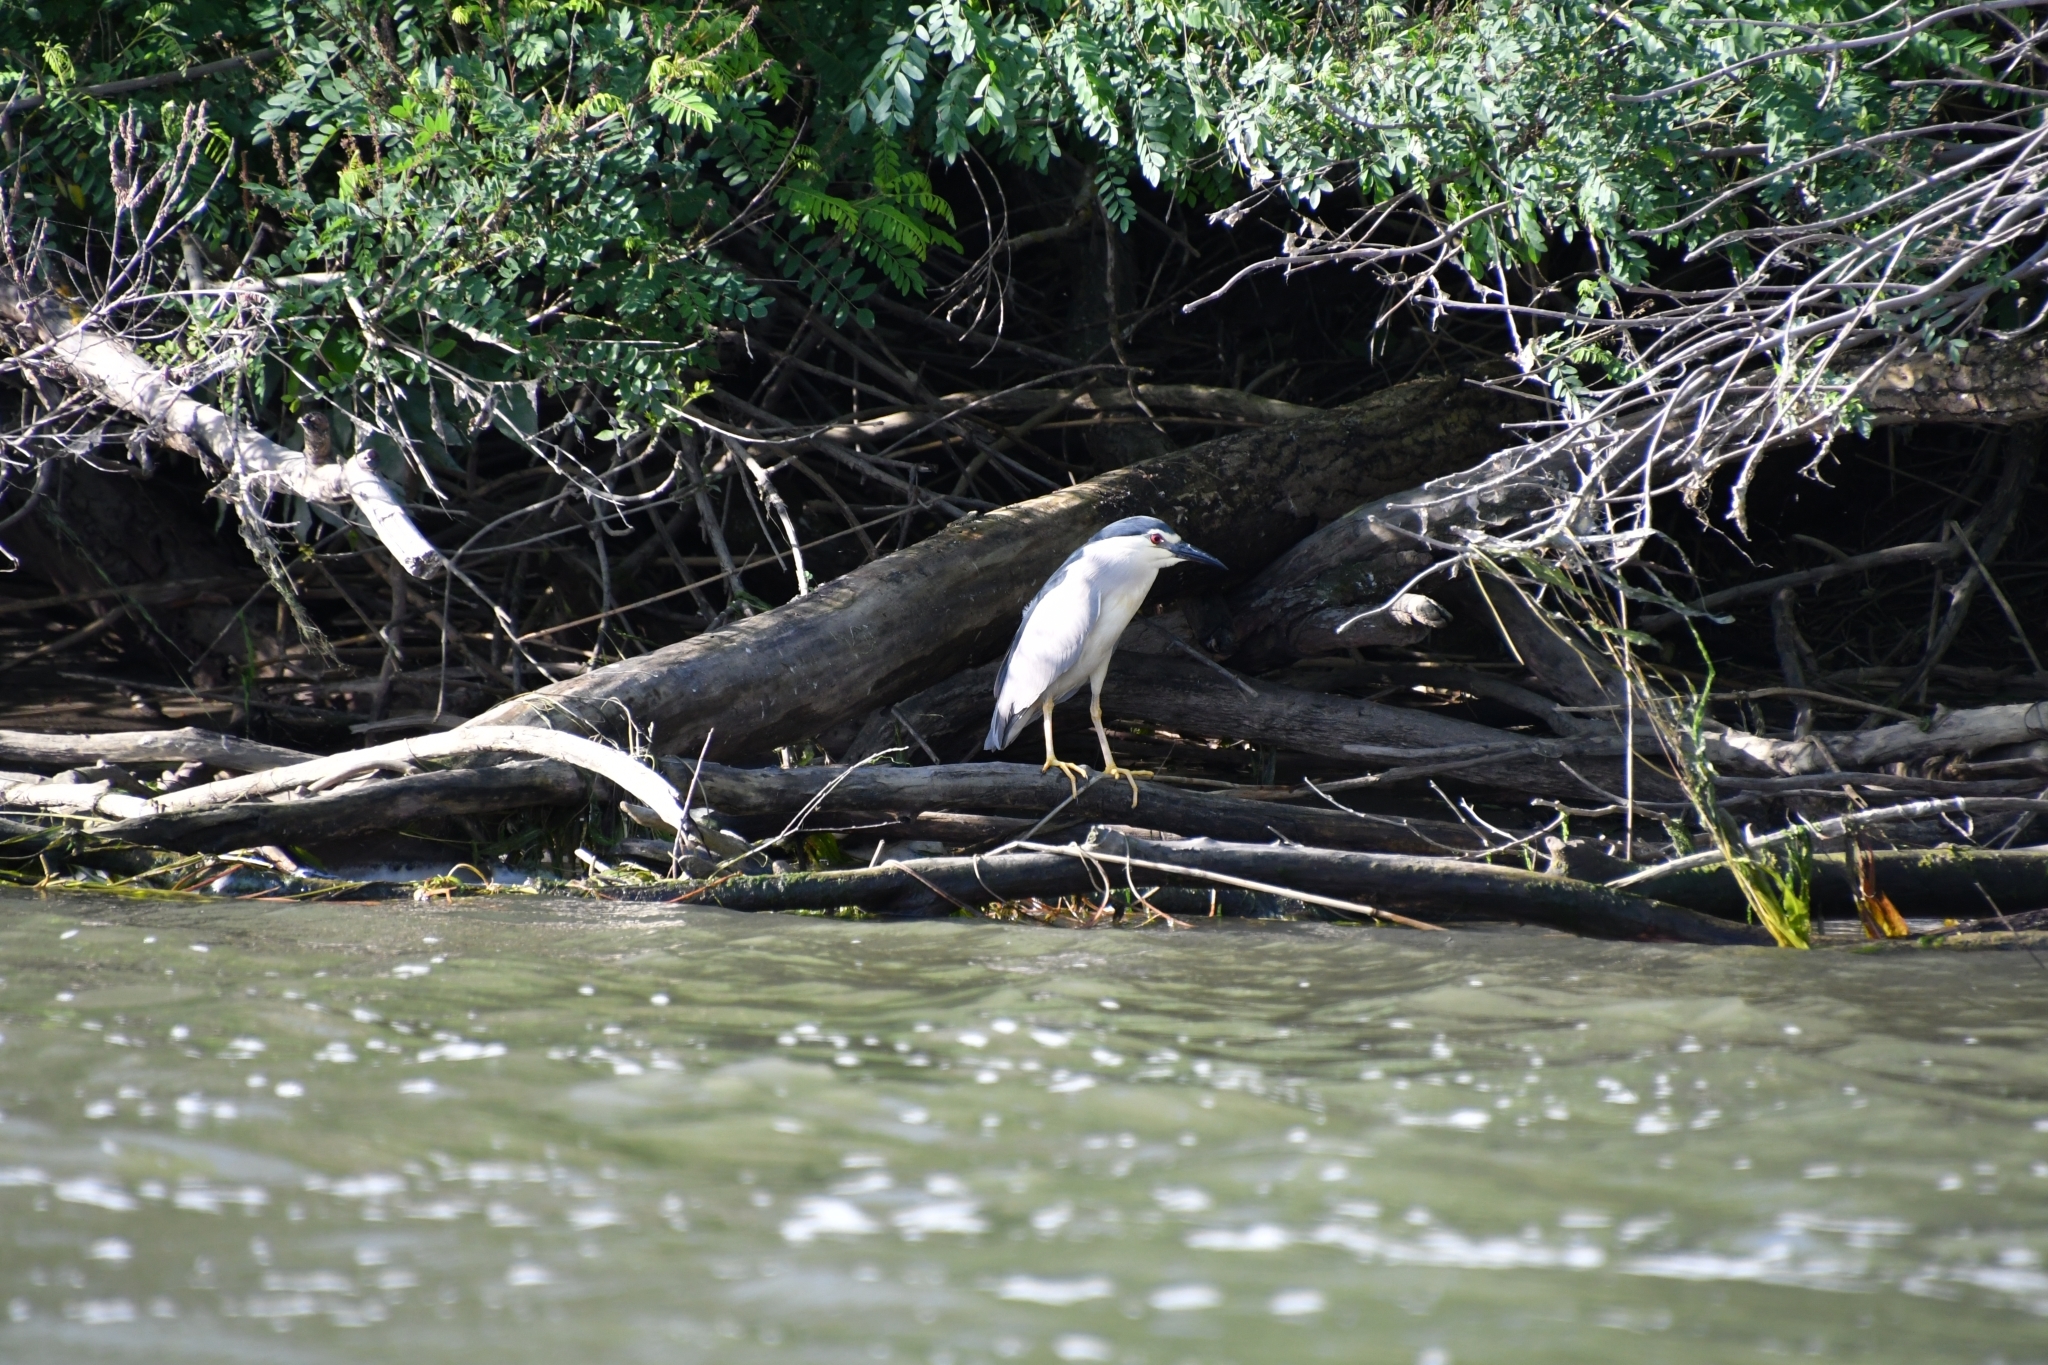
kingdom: Animalia
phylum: Chordata
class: Aves
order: Pelecaniformes
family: Ardeidae
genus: Nycticorax
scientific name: Nycticorax nycticorax
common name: Black-crowned night heron
